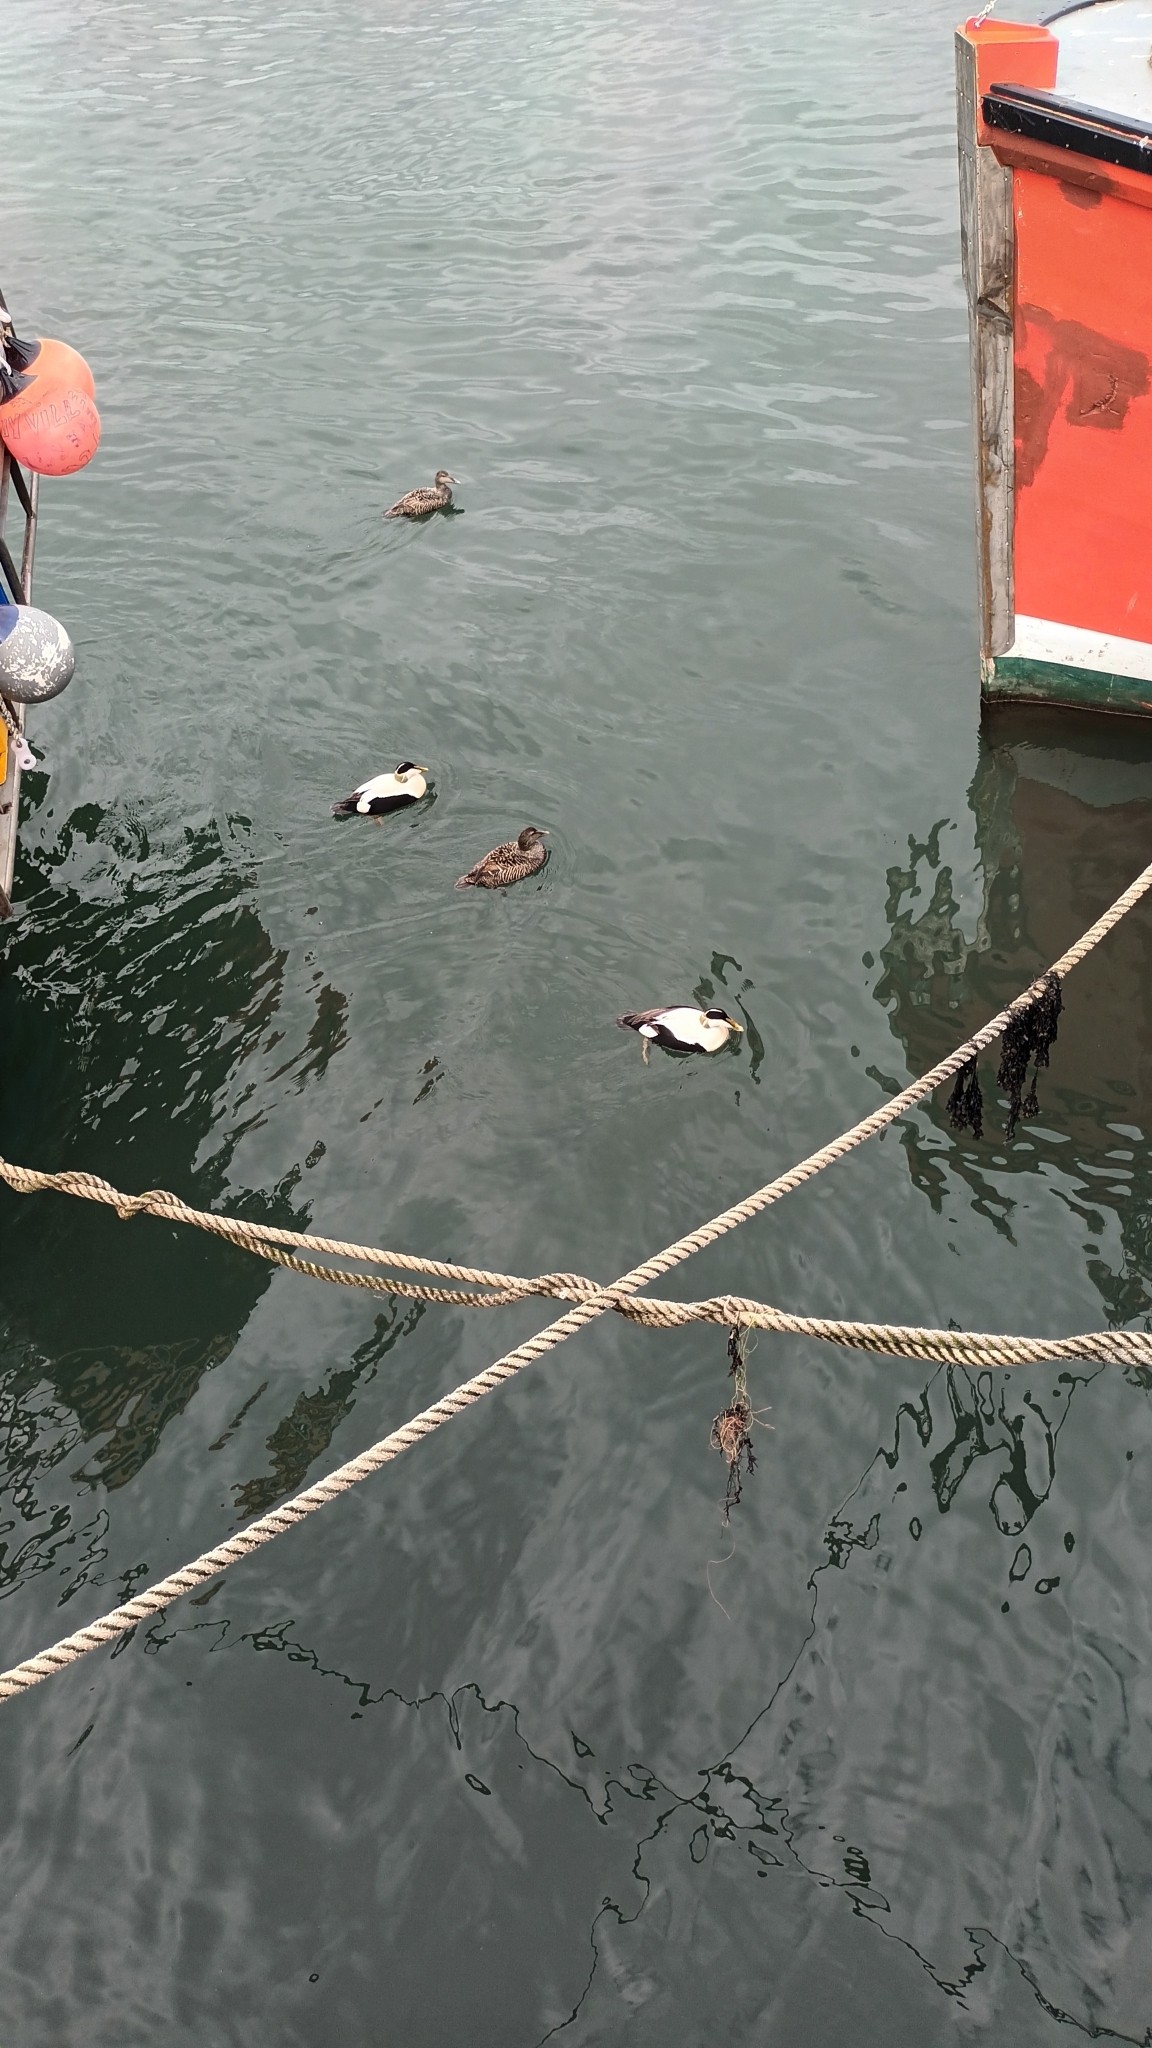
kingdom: Animalia
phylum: Chordata
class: Aves
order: Anseriformes
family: Anatidae
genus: Somateria
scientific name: Somateria mollissima
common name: Common eider
